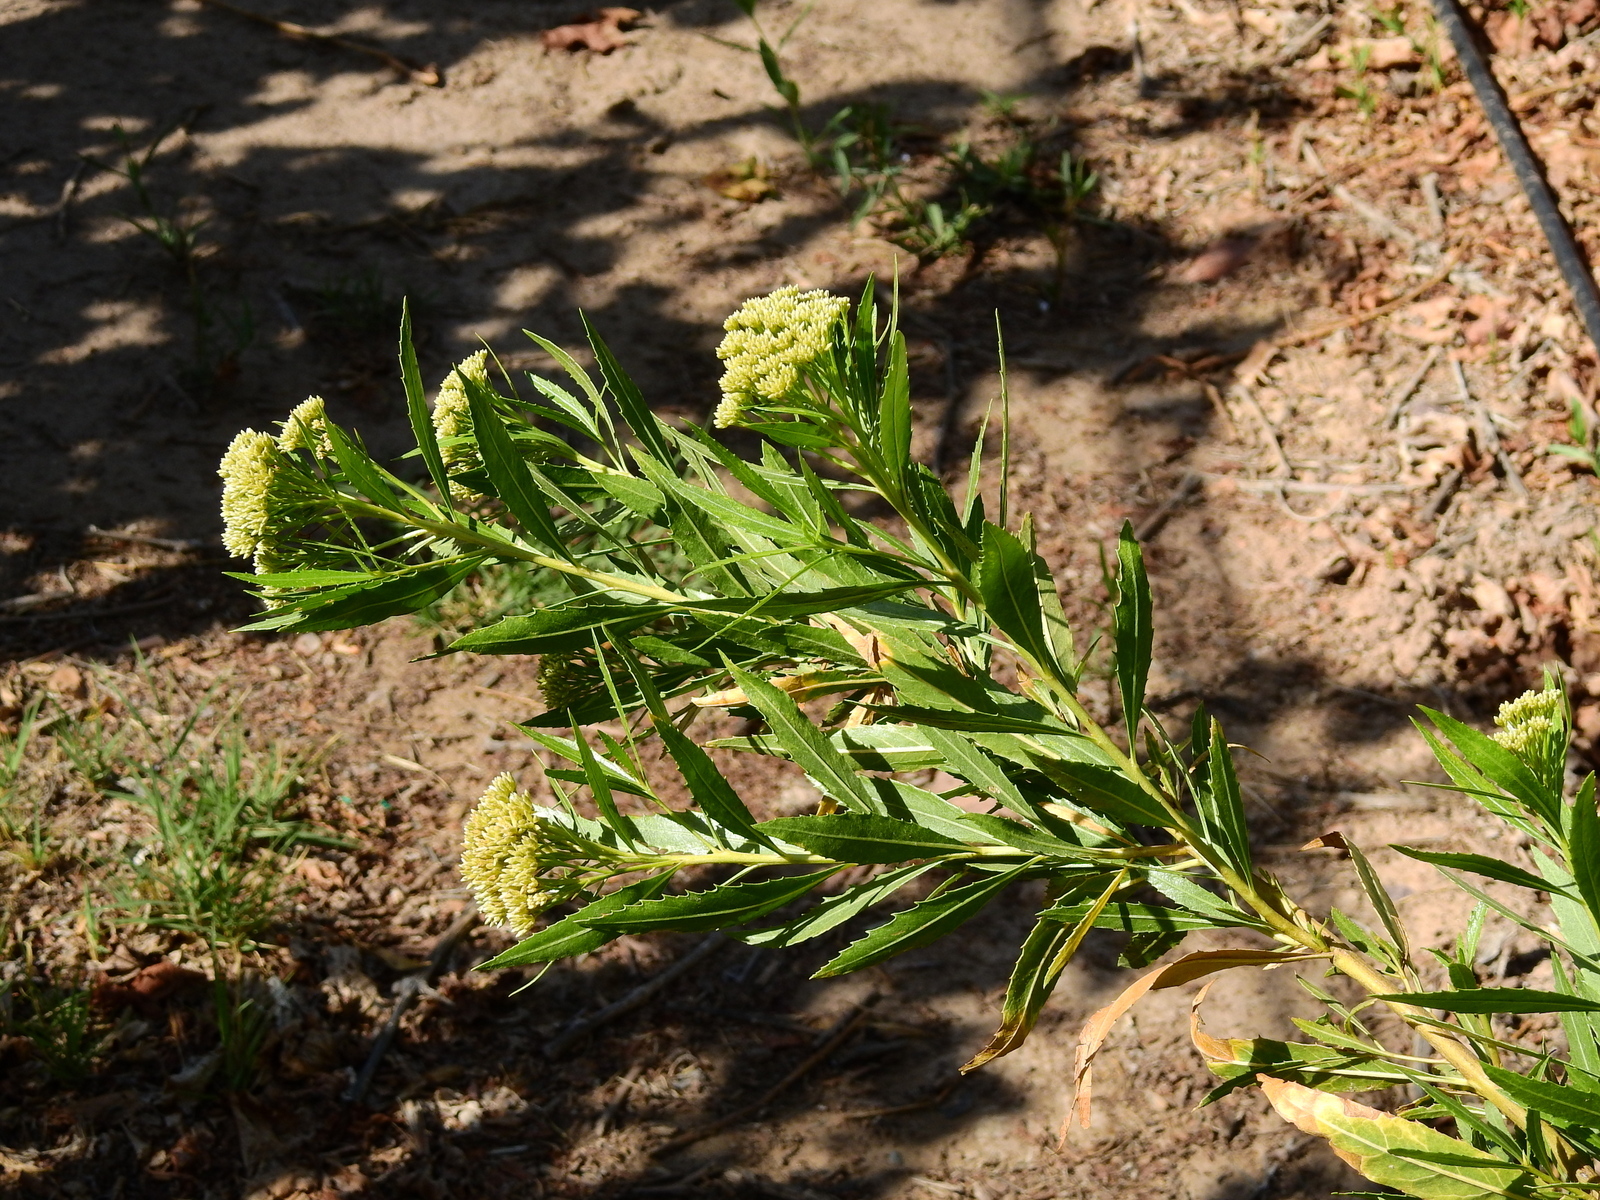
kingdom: Plantae
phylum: Tracheophyta
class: Magnoliopsida
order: Asterales
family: Asteraceae
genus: Tessaria
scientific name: Tessaria dodonaeifolia
